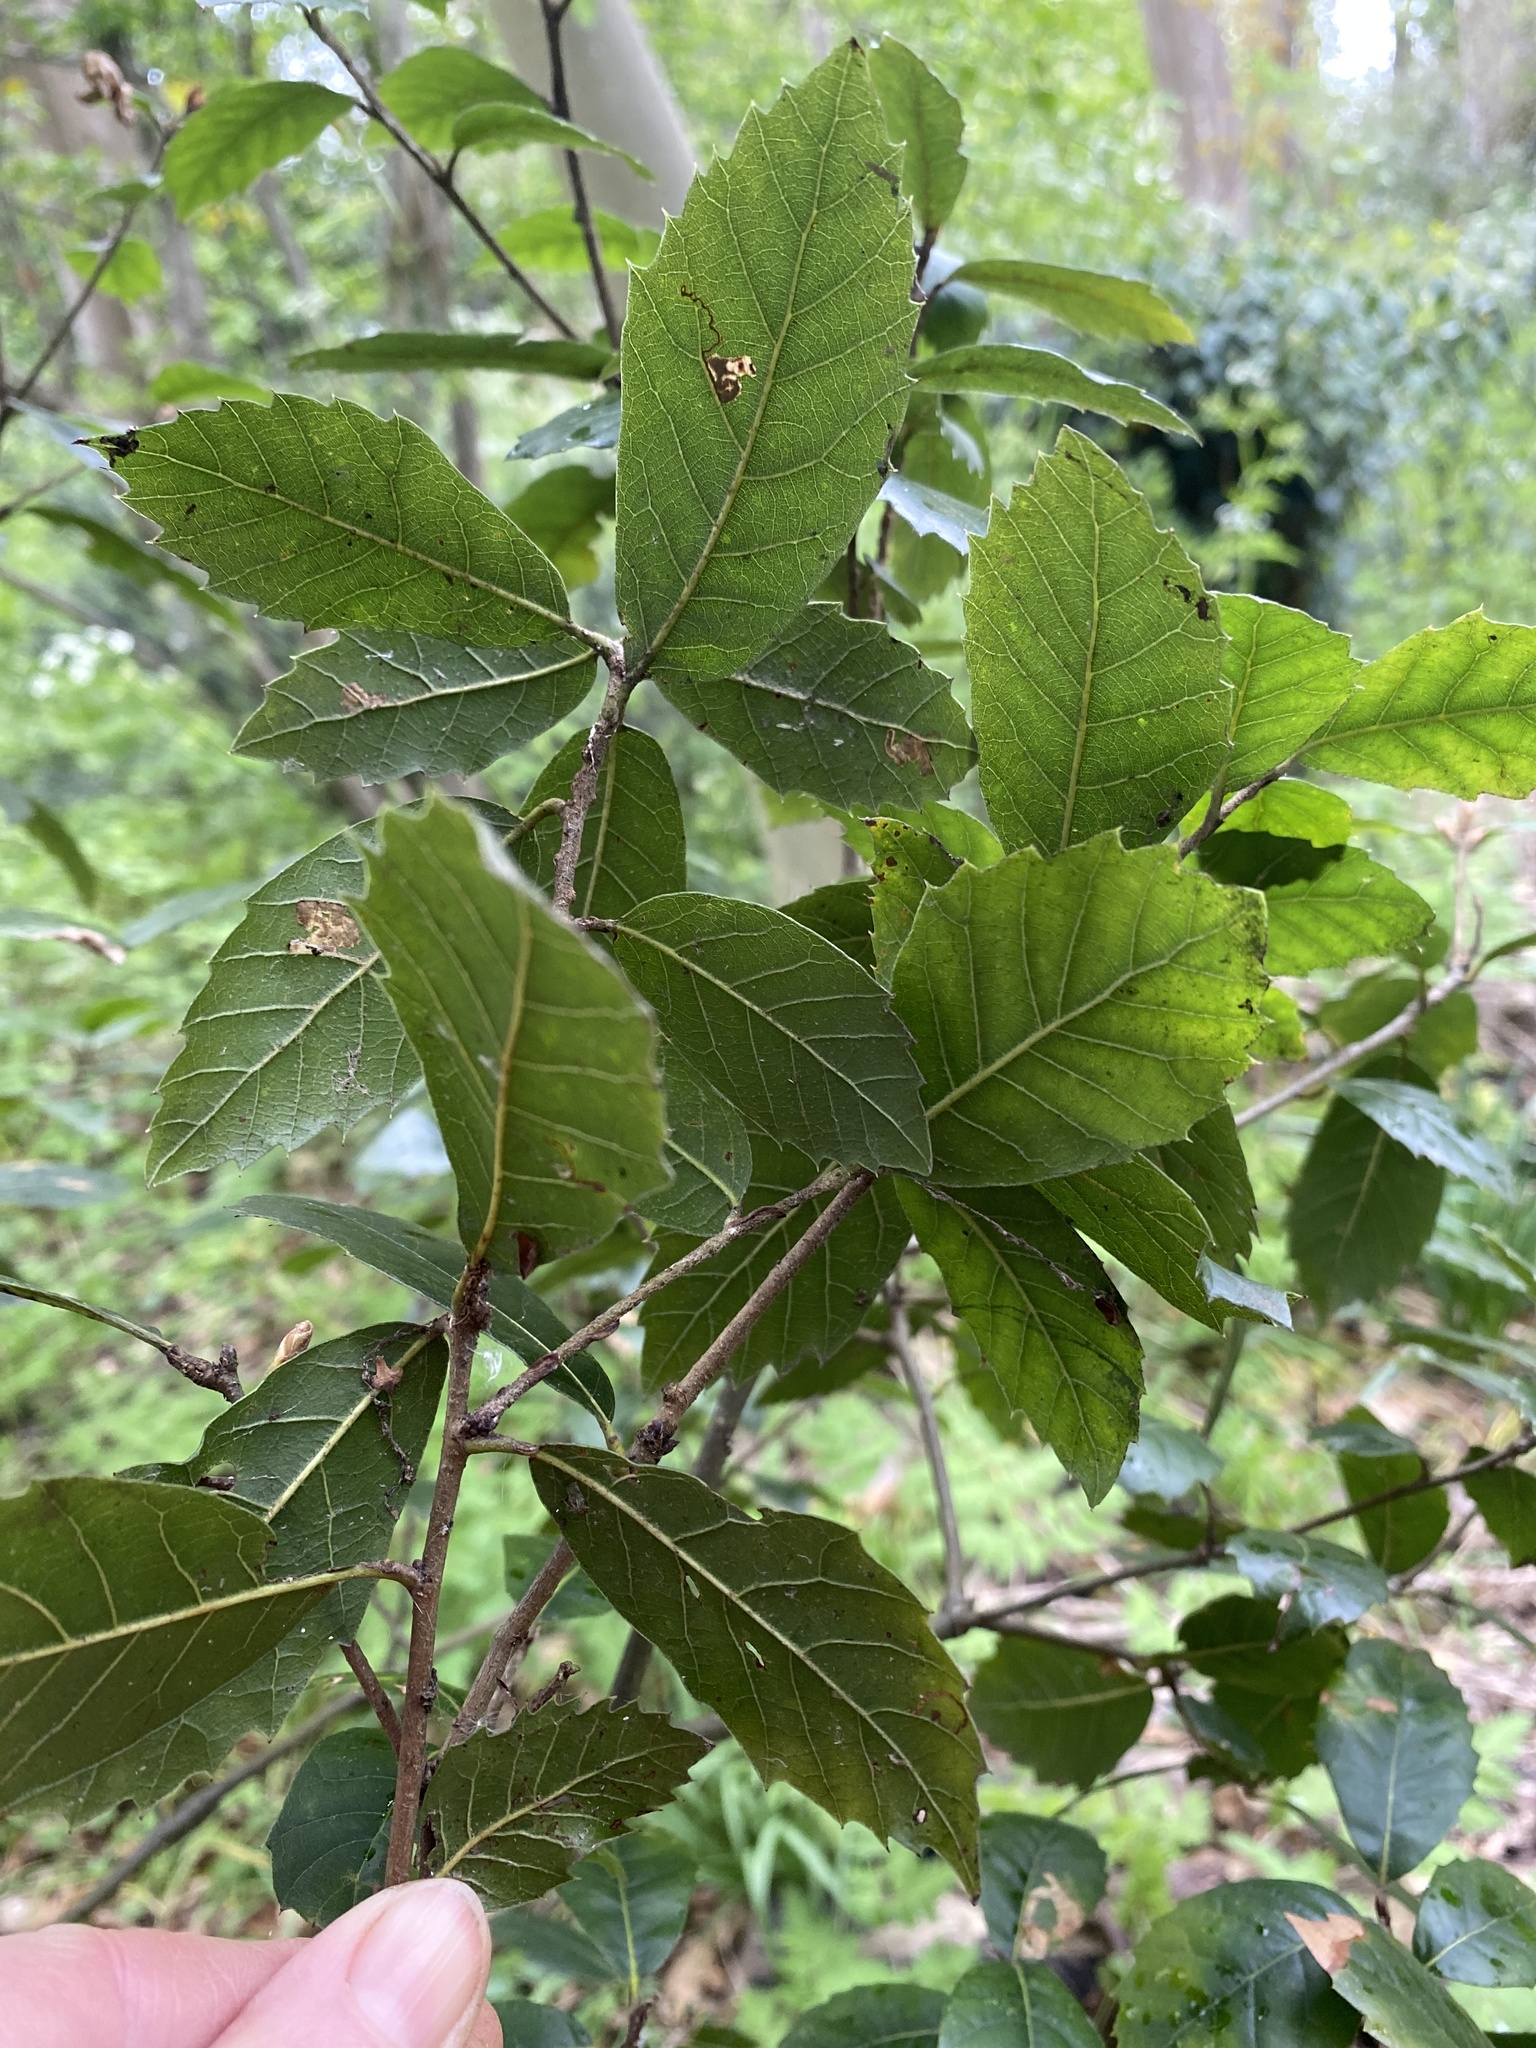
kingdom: Plantae
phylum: Tracheophyta
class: Magnoliopsida
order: Fagales
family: Fagaceae
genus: Quercus
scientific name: Quercus ilex
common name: Evergreen oak
